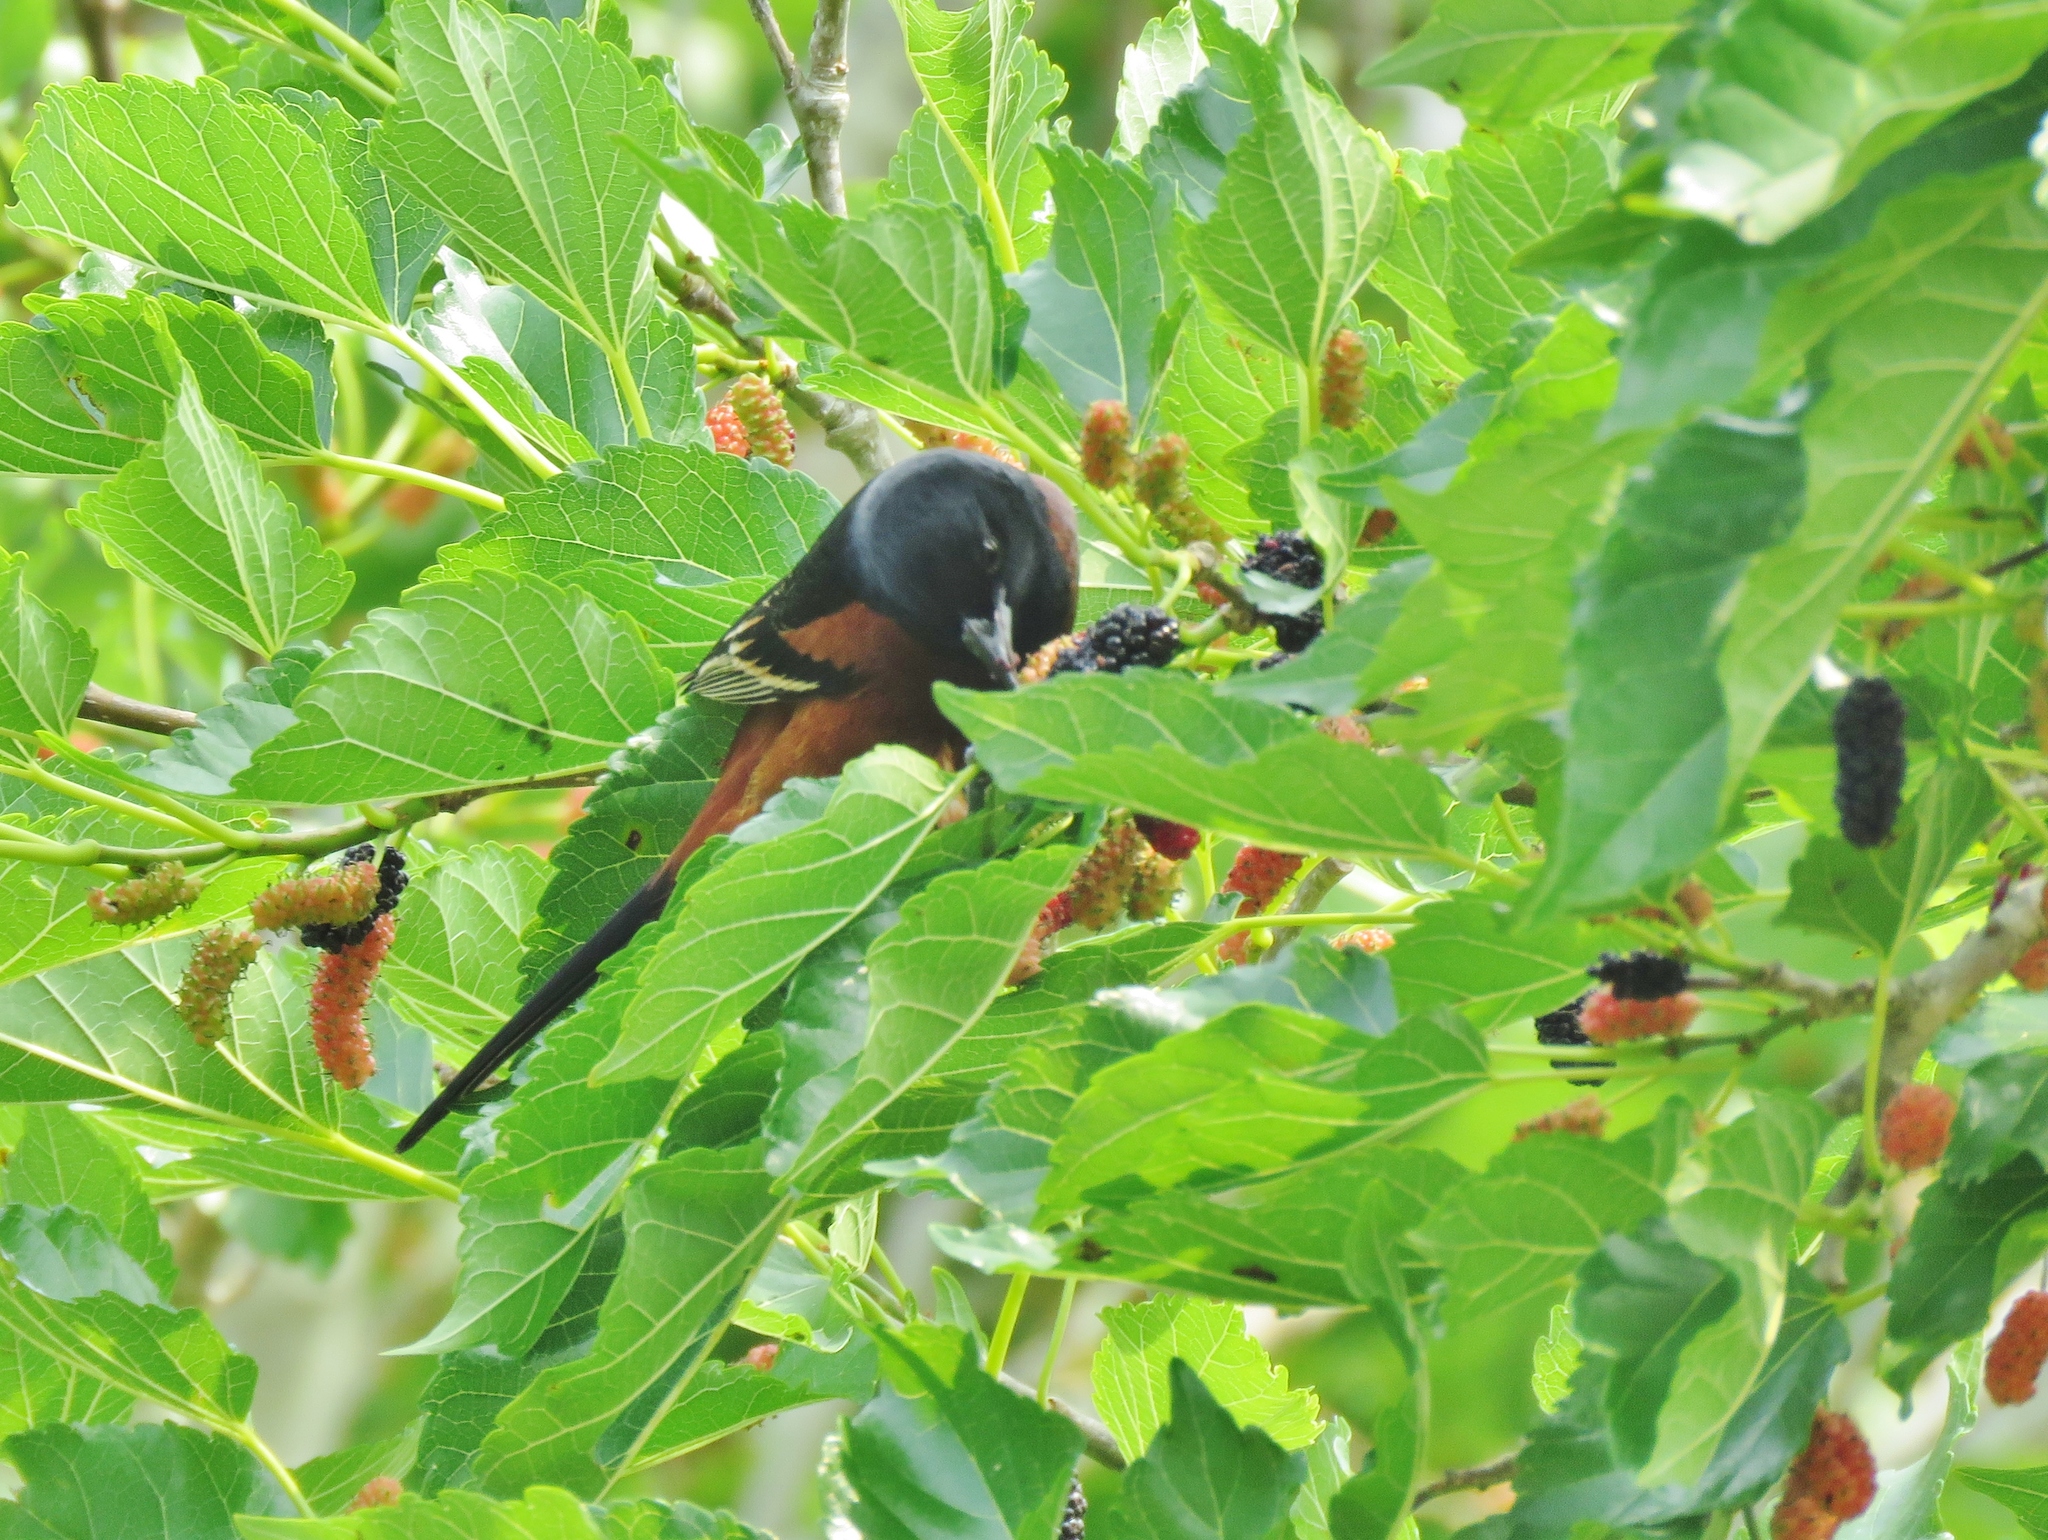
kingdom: Animalia
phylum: Chordata
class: Aves
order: Passeriformes
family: Icteridae
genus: Icterus
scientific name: Icterus spurius
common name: Orchard oriole
